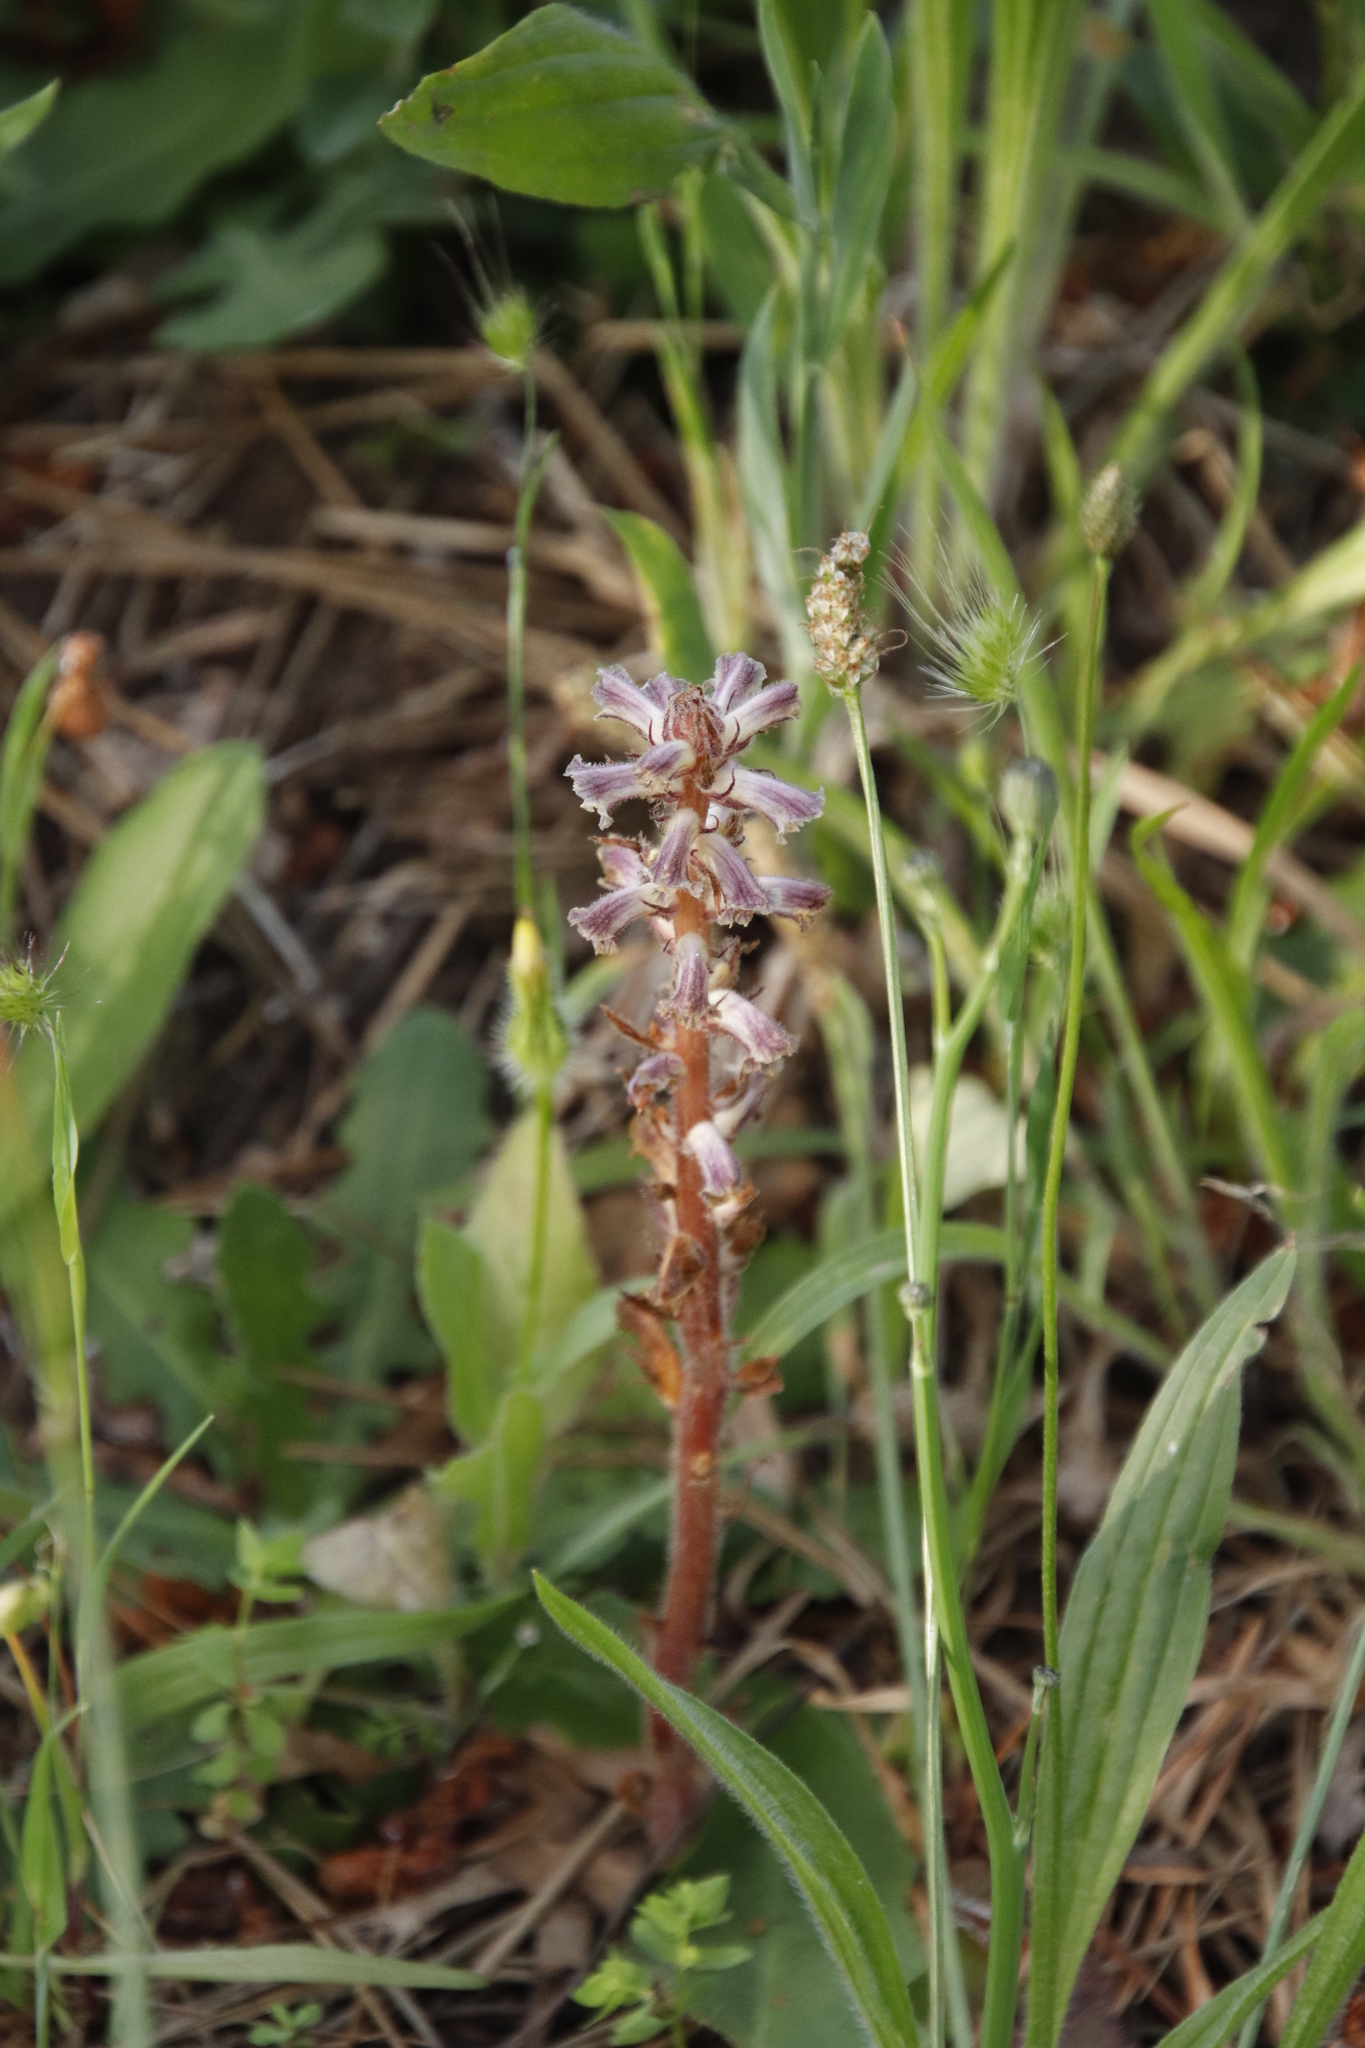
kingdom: Plantae
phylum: Tracheophyta
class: Magnoliopsida
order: Lamiales
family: Orobanchaceae
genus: Orobanche
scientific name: Orobanche minor
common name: Common broomrape
